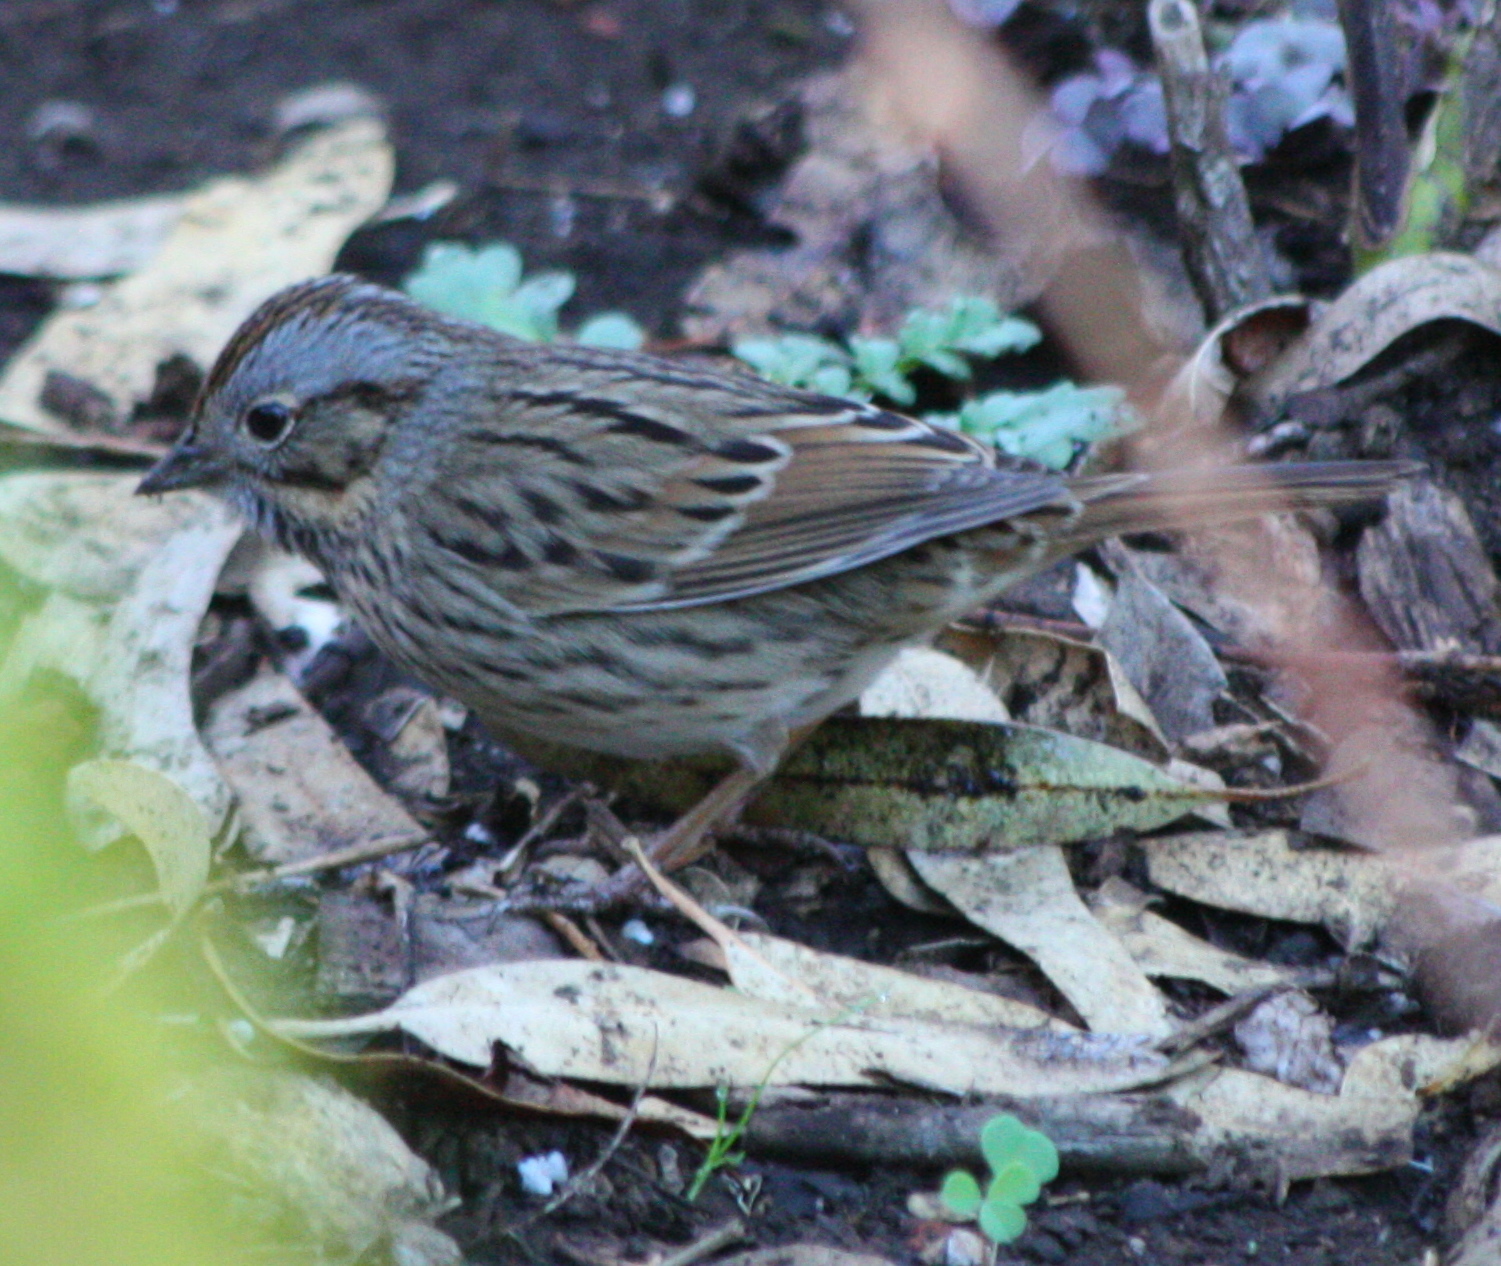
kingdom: Animalia
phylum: Chordata
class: Aves
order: Passeriformes
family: Passerellidae
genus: Melospiza
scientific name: Melospiza lincolnii
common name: Lincoln's sparrow
